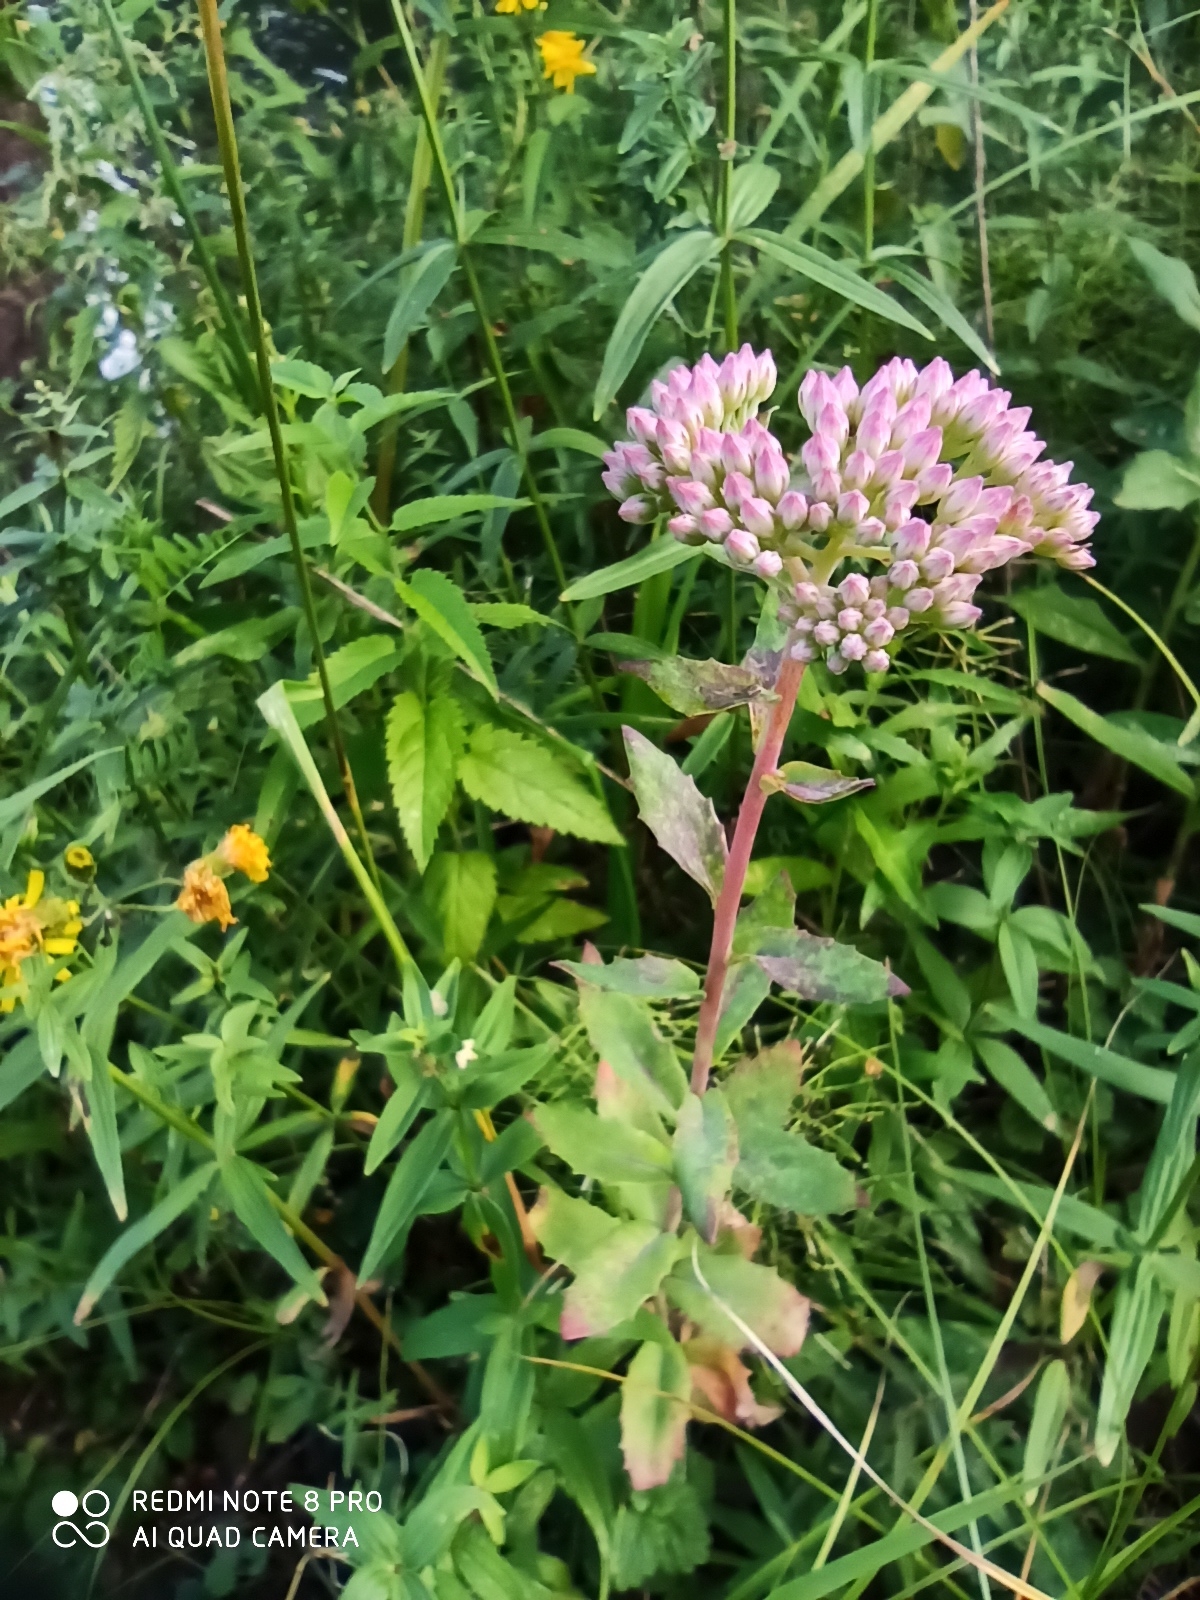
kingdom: Plantae
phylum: Tracheophyta
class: Magnoliopsida
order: Saxifragales
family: Crassulaceae
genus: Hylotelephium
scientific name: Hylotelephium telephium
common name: Live-forever
